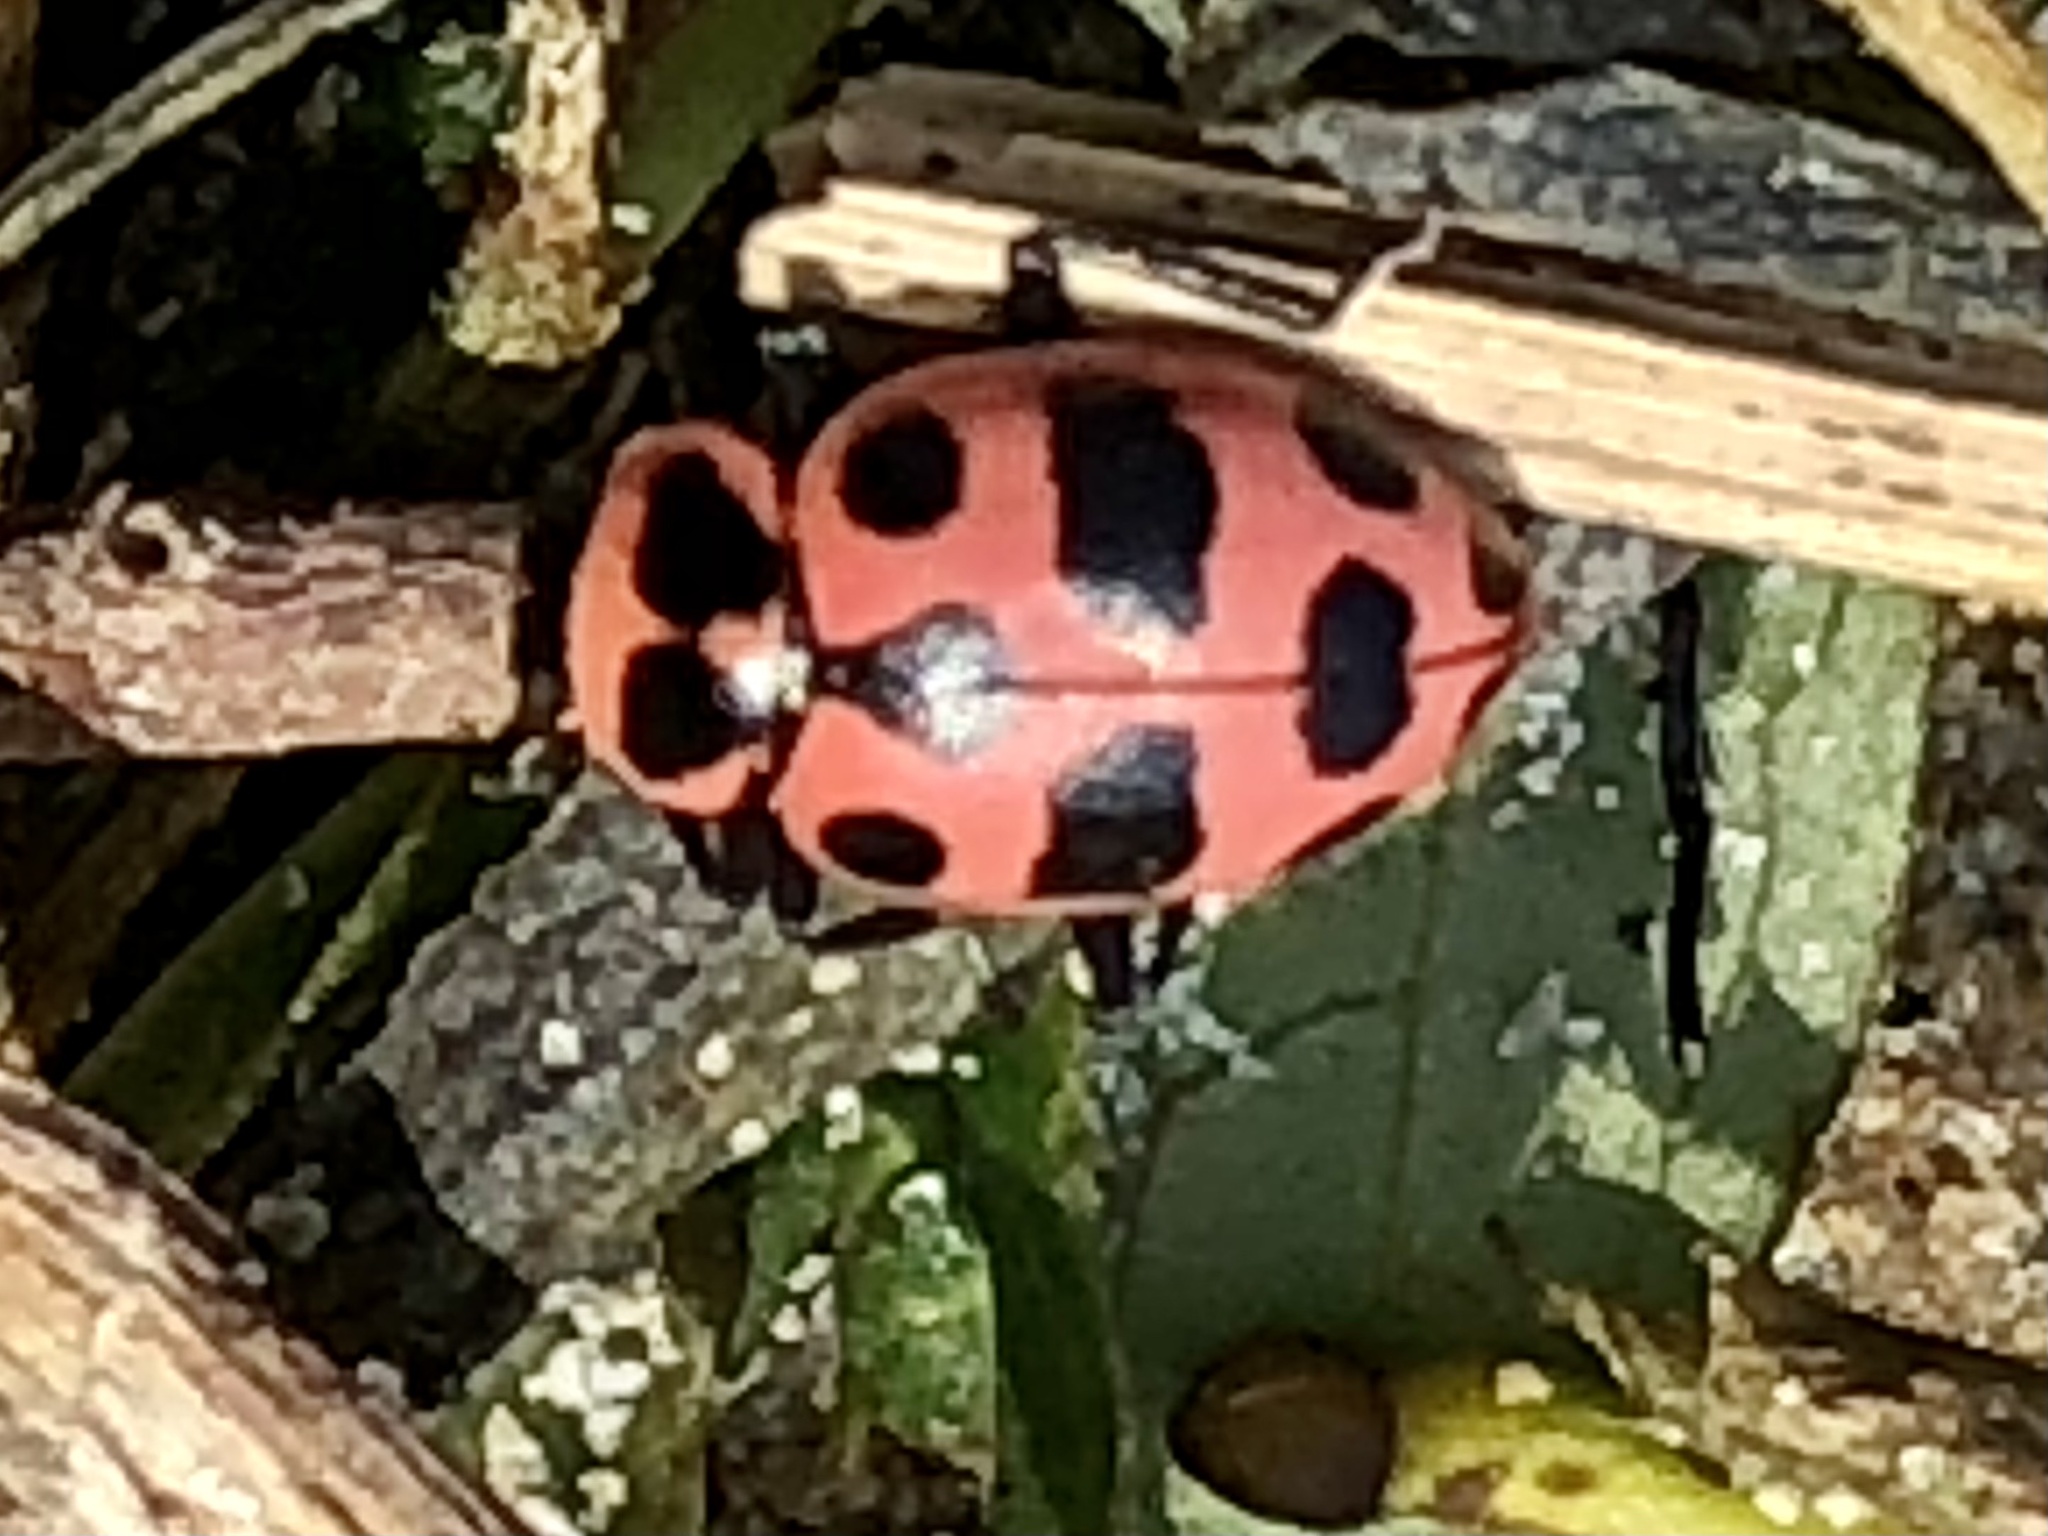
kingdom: Animalia
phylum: Arthropoda
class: Insecta
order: Coleoptera
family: Coccinellidae
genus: Coleomegilla
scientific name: Coleomegilla maculata
